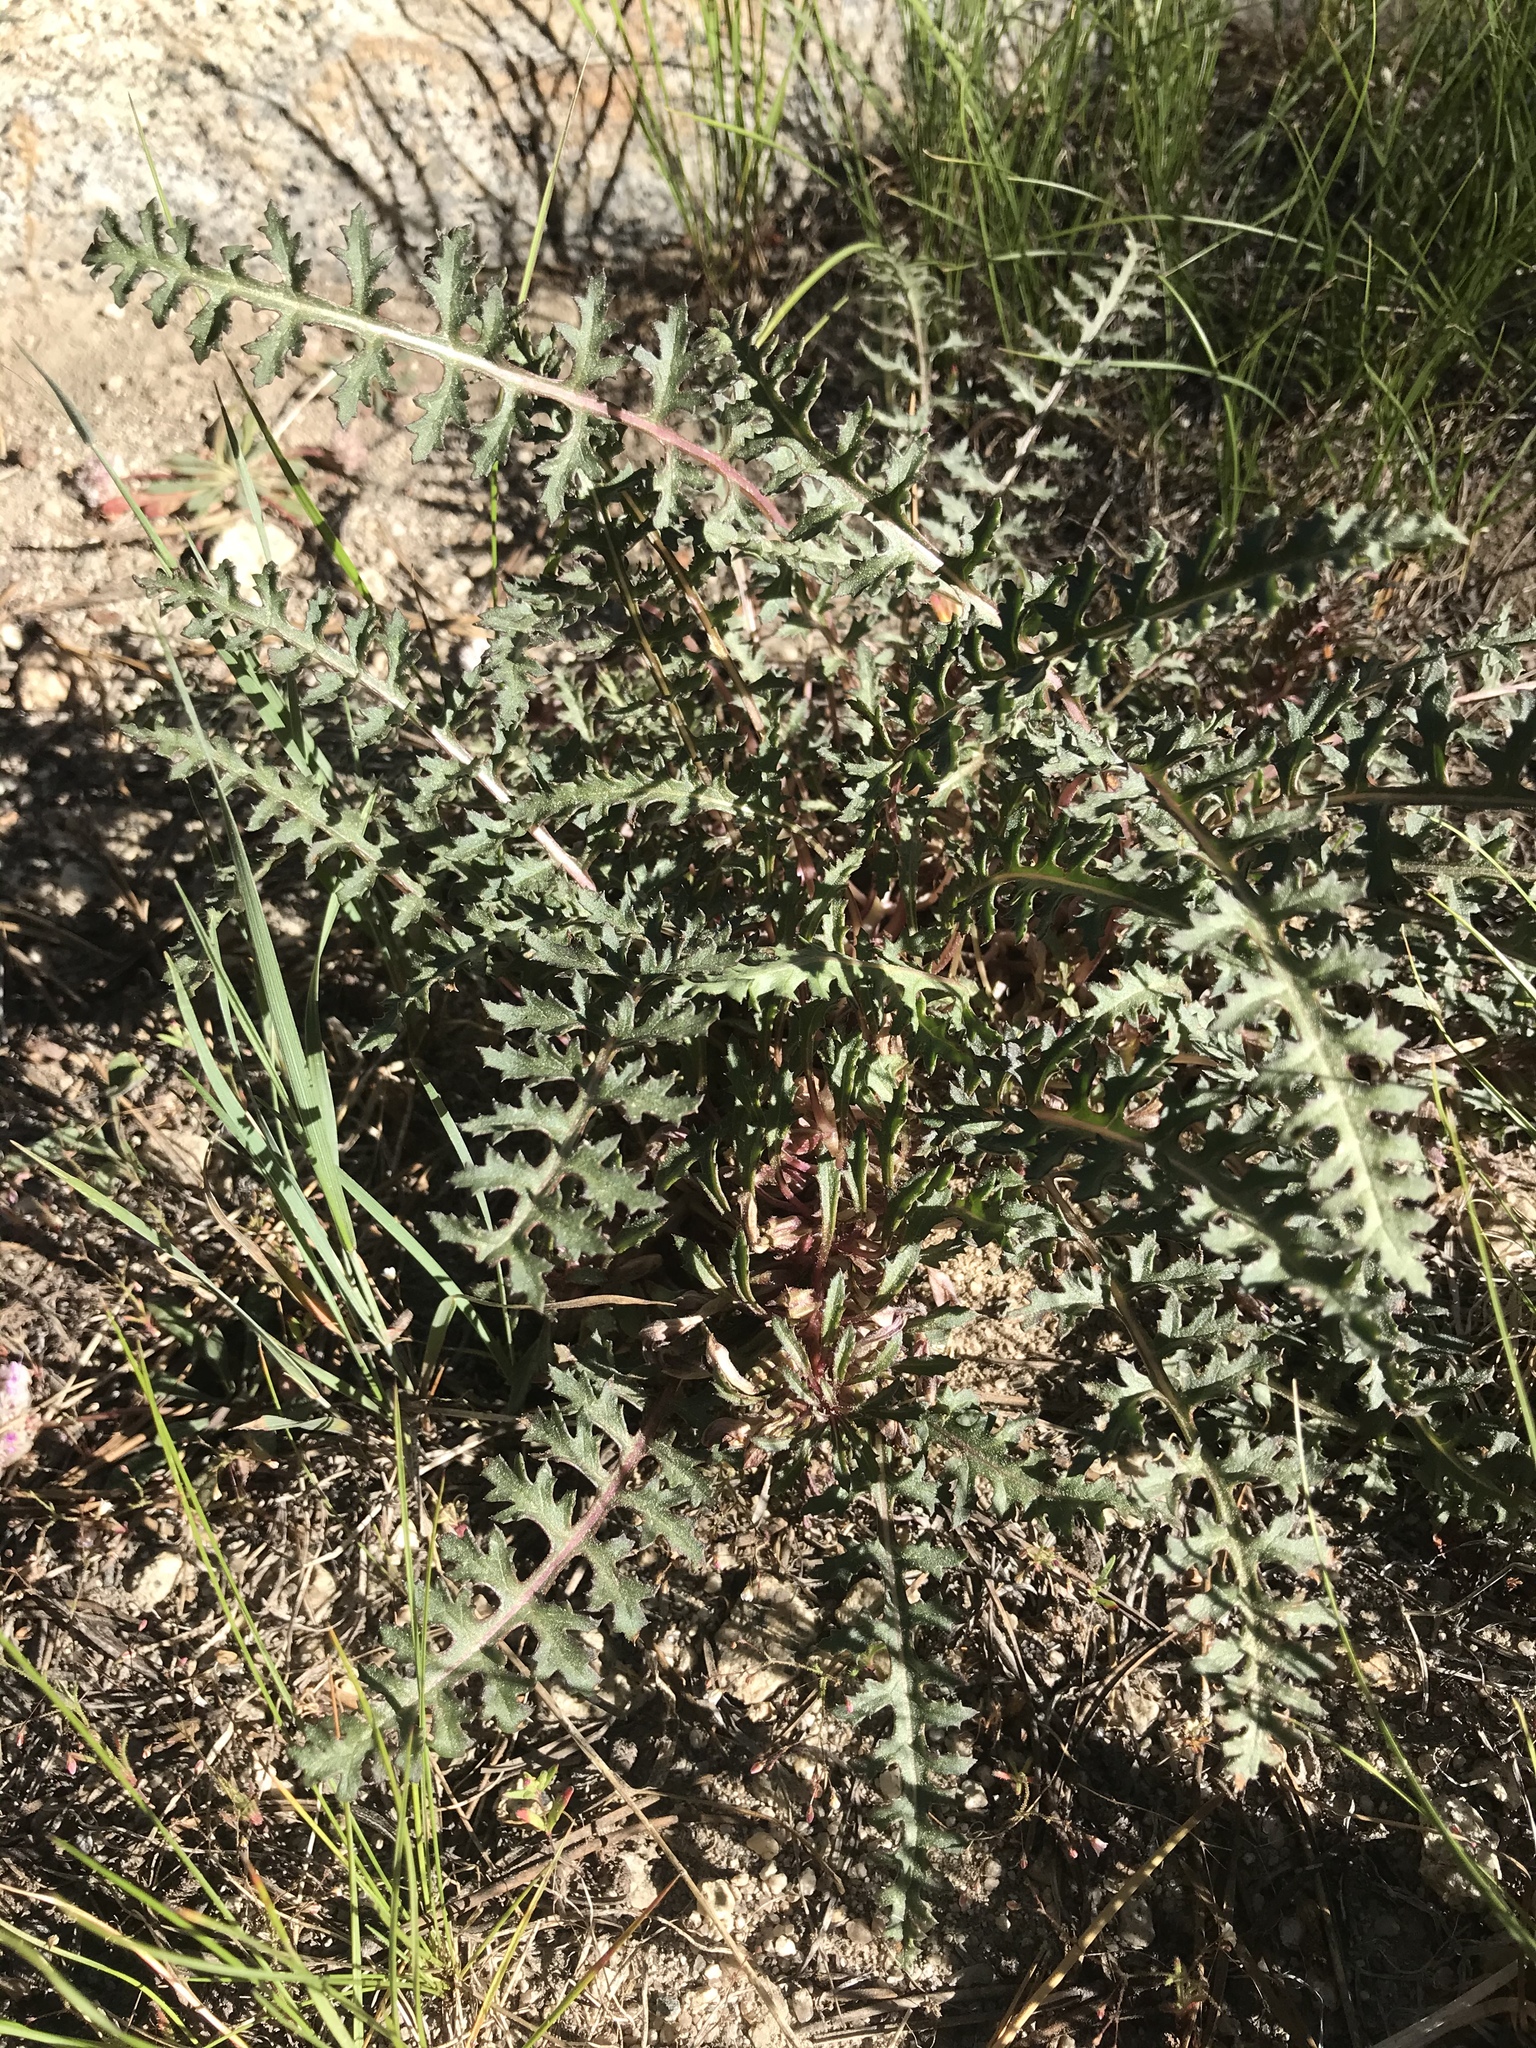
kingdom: Plantae
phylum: Tracheophyta
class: Magnoliopsida
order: Lamiales
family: Orobanchaceae
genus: Pedicularis
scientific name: Pedicularis semibarbata
